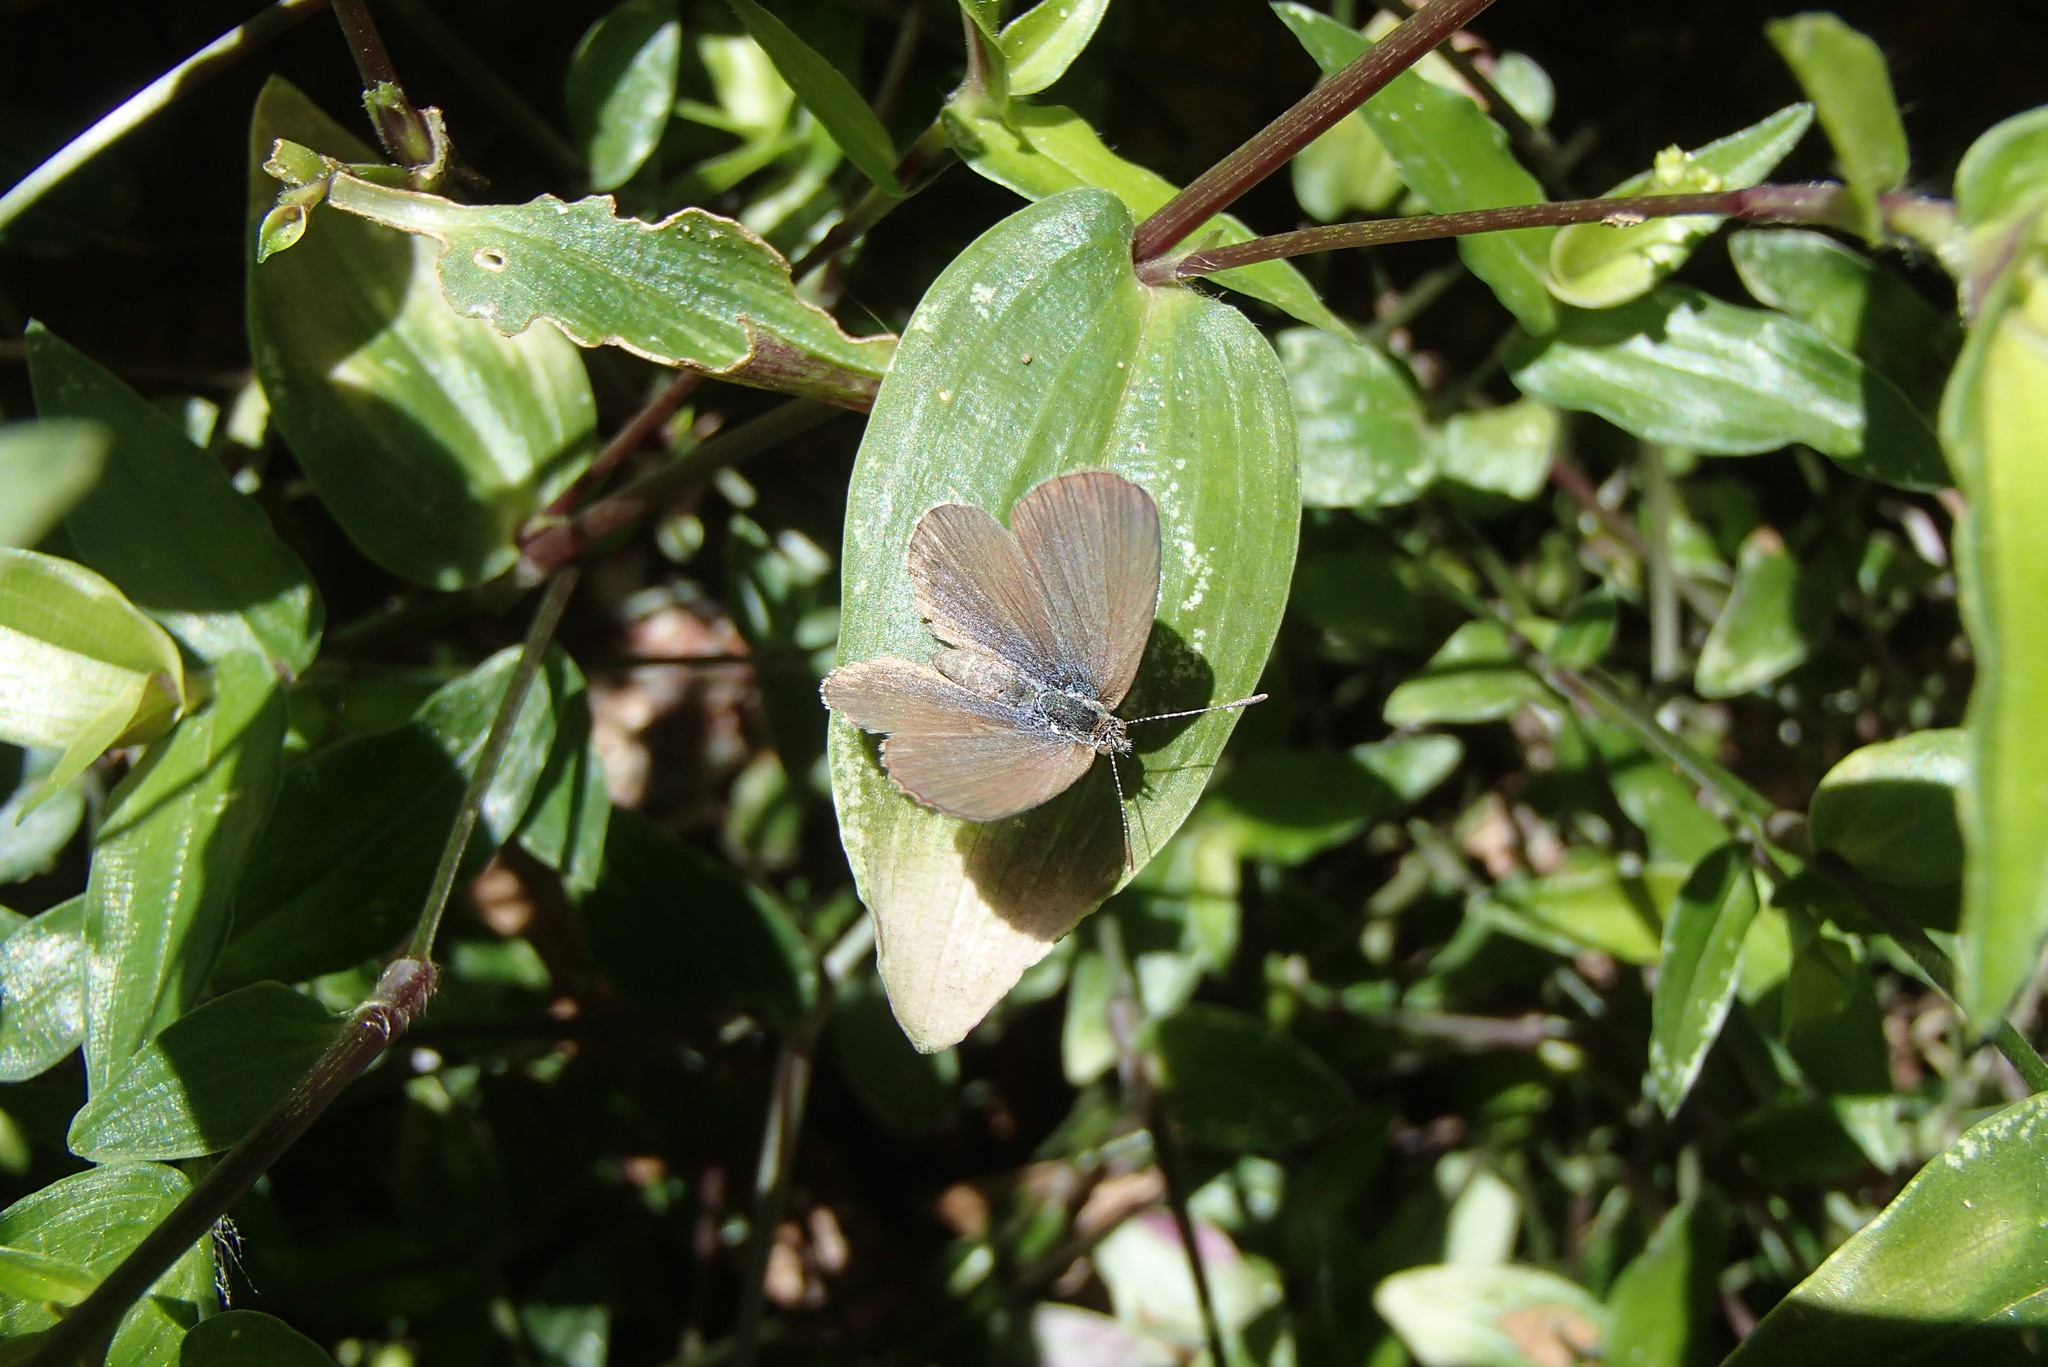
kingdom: Animalia
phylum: Arthropoda
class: Insecta
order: Lepidoptera
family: Lycaenidae
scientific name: Lycaenidae
